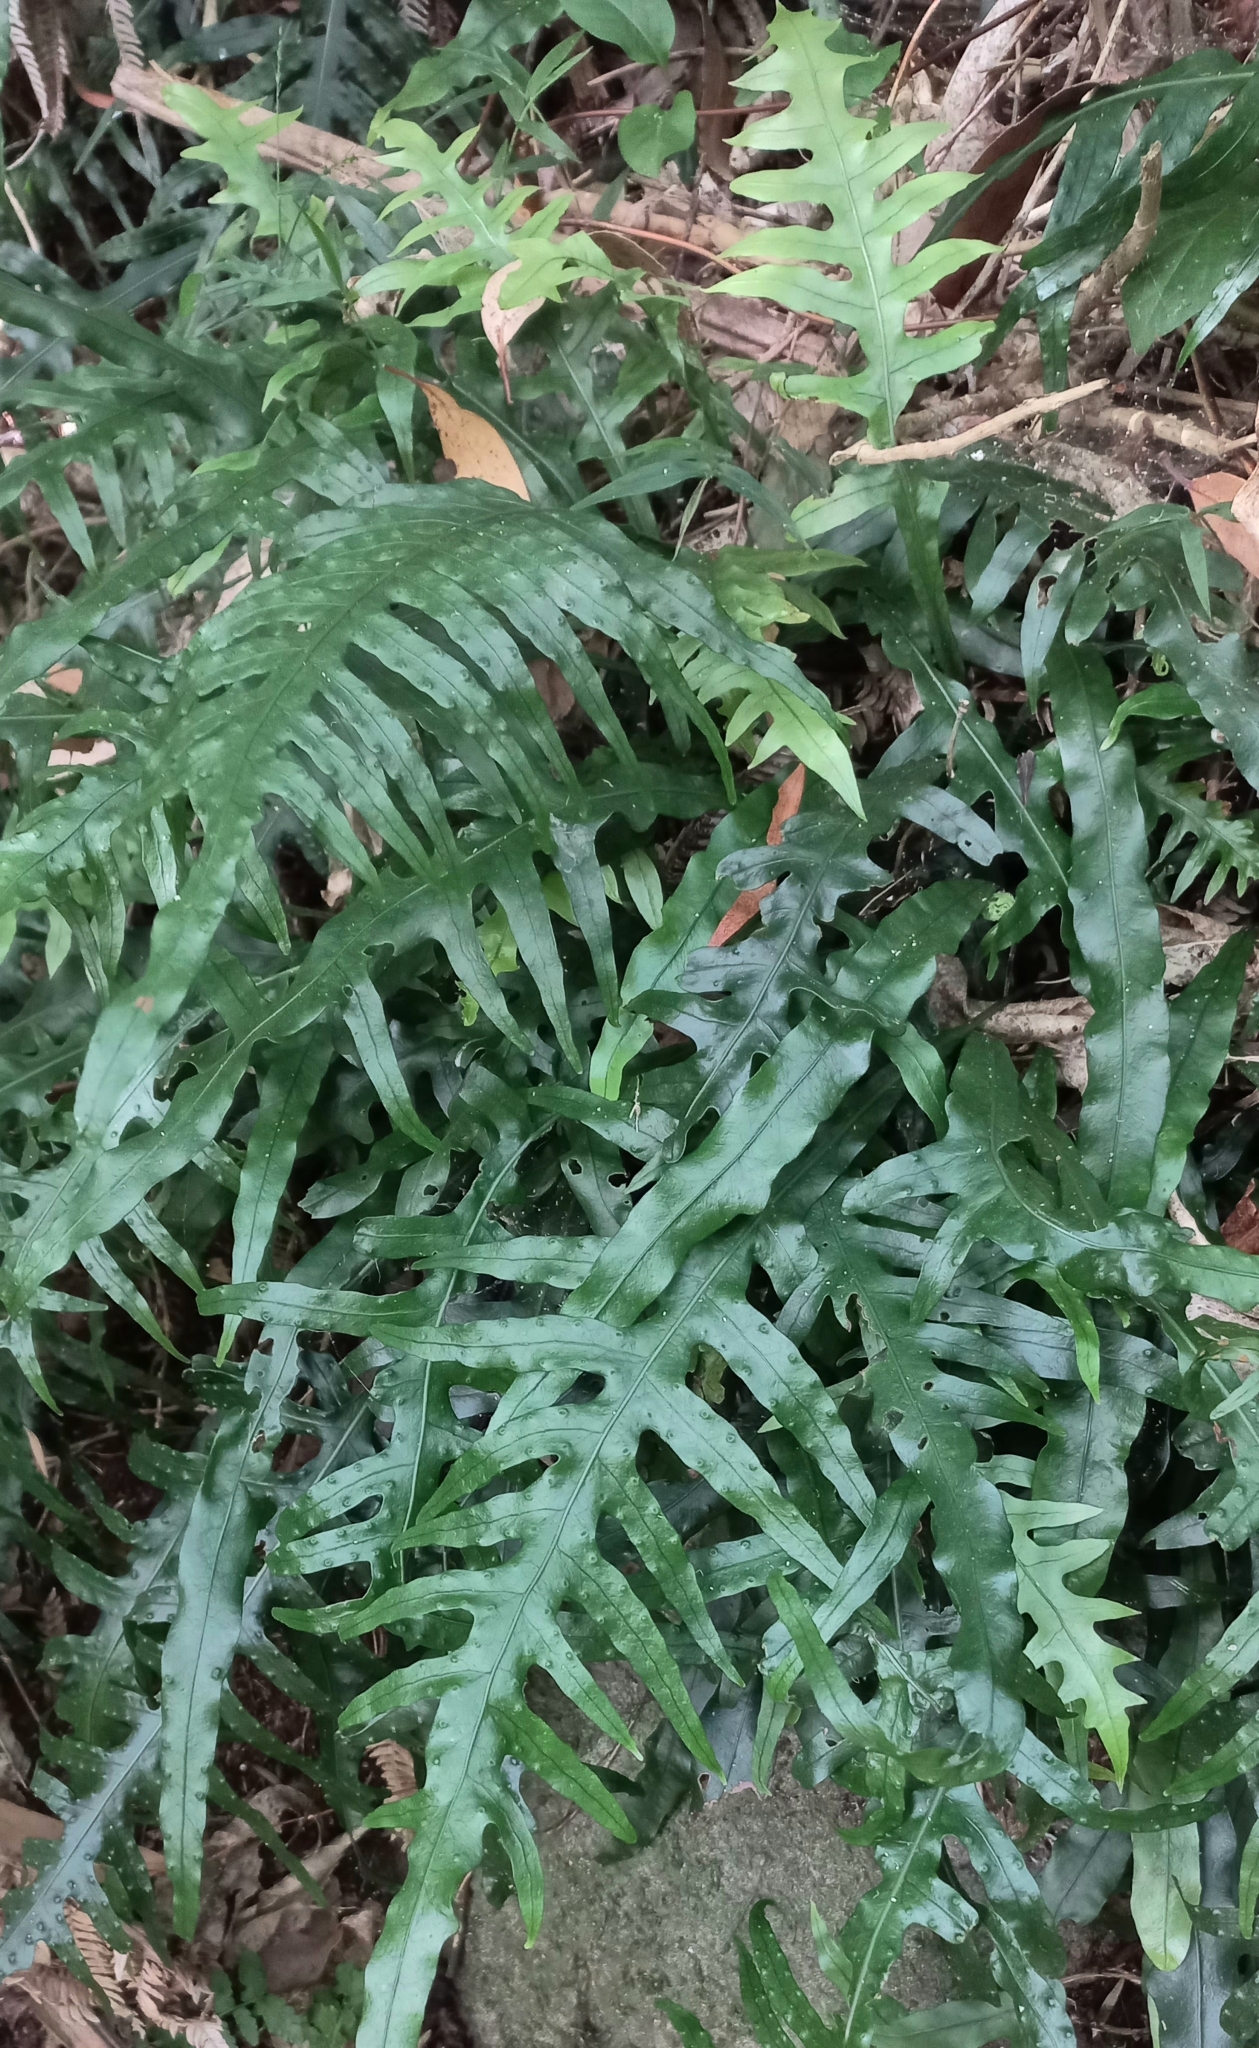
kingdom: Plantae
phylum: Tracheophyta
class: Polypodiopsida
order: Polypodiales
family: Polypodiaceae
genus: Lecanopteris
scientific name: Lecanopteris scandens
